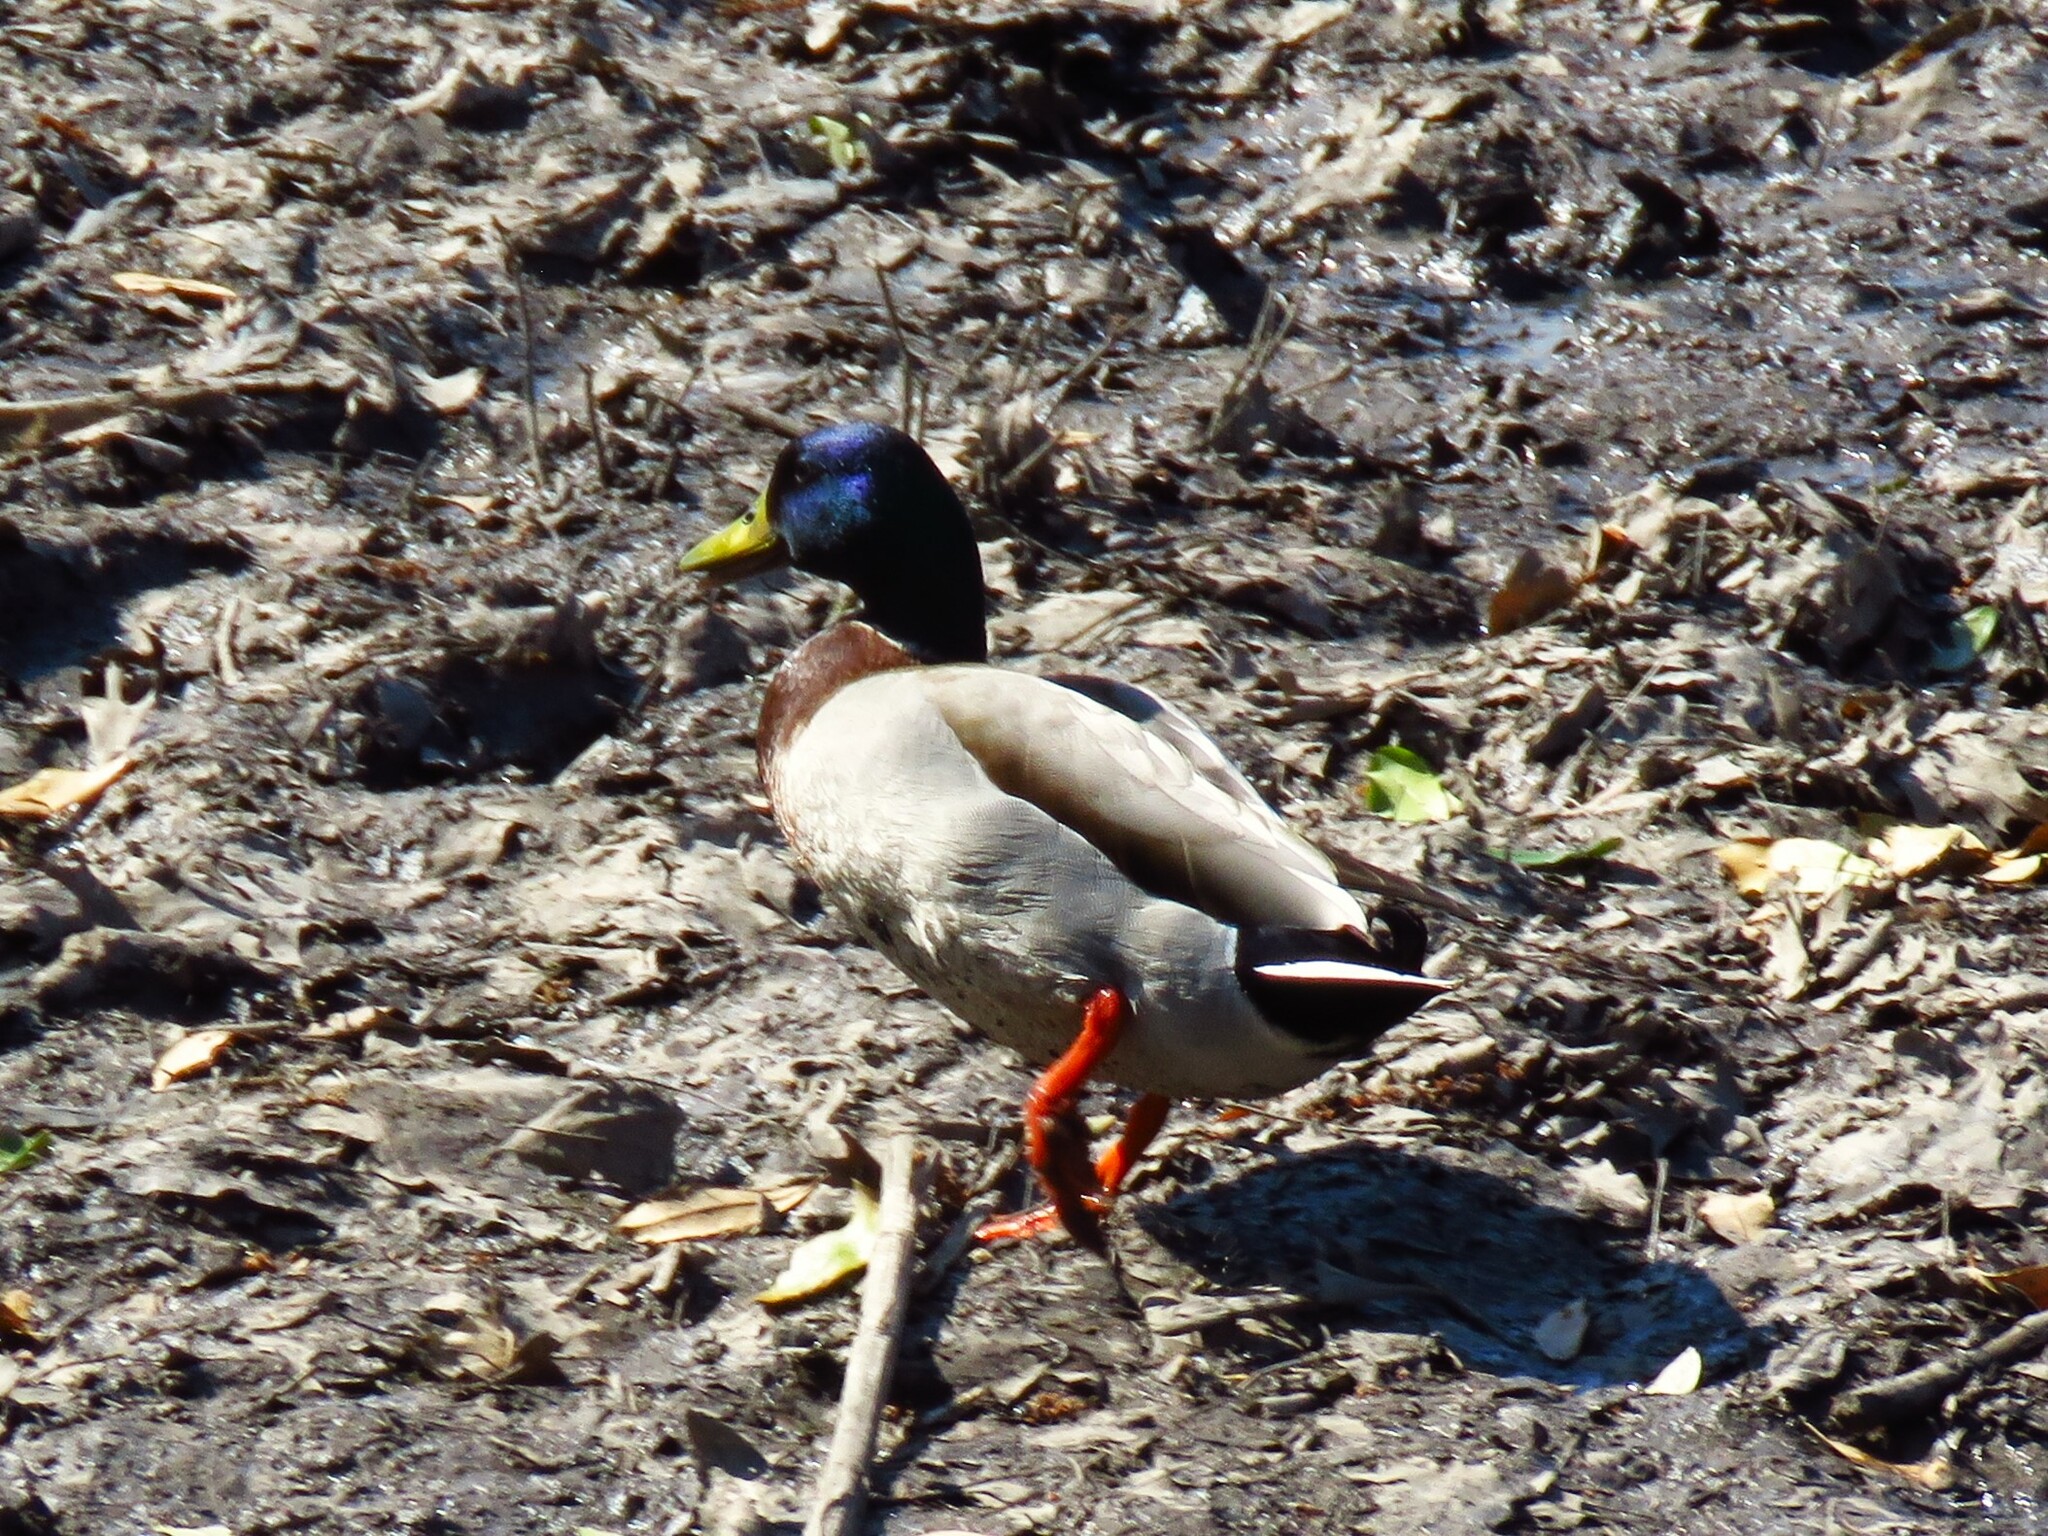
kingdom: Animalia
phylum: Chordata
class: Aves
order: Anseriformes
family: Anatidae
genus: Anas
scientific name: Anas platyrhynchos
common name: Mallard
